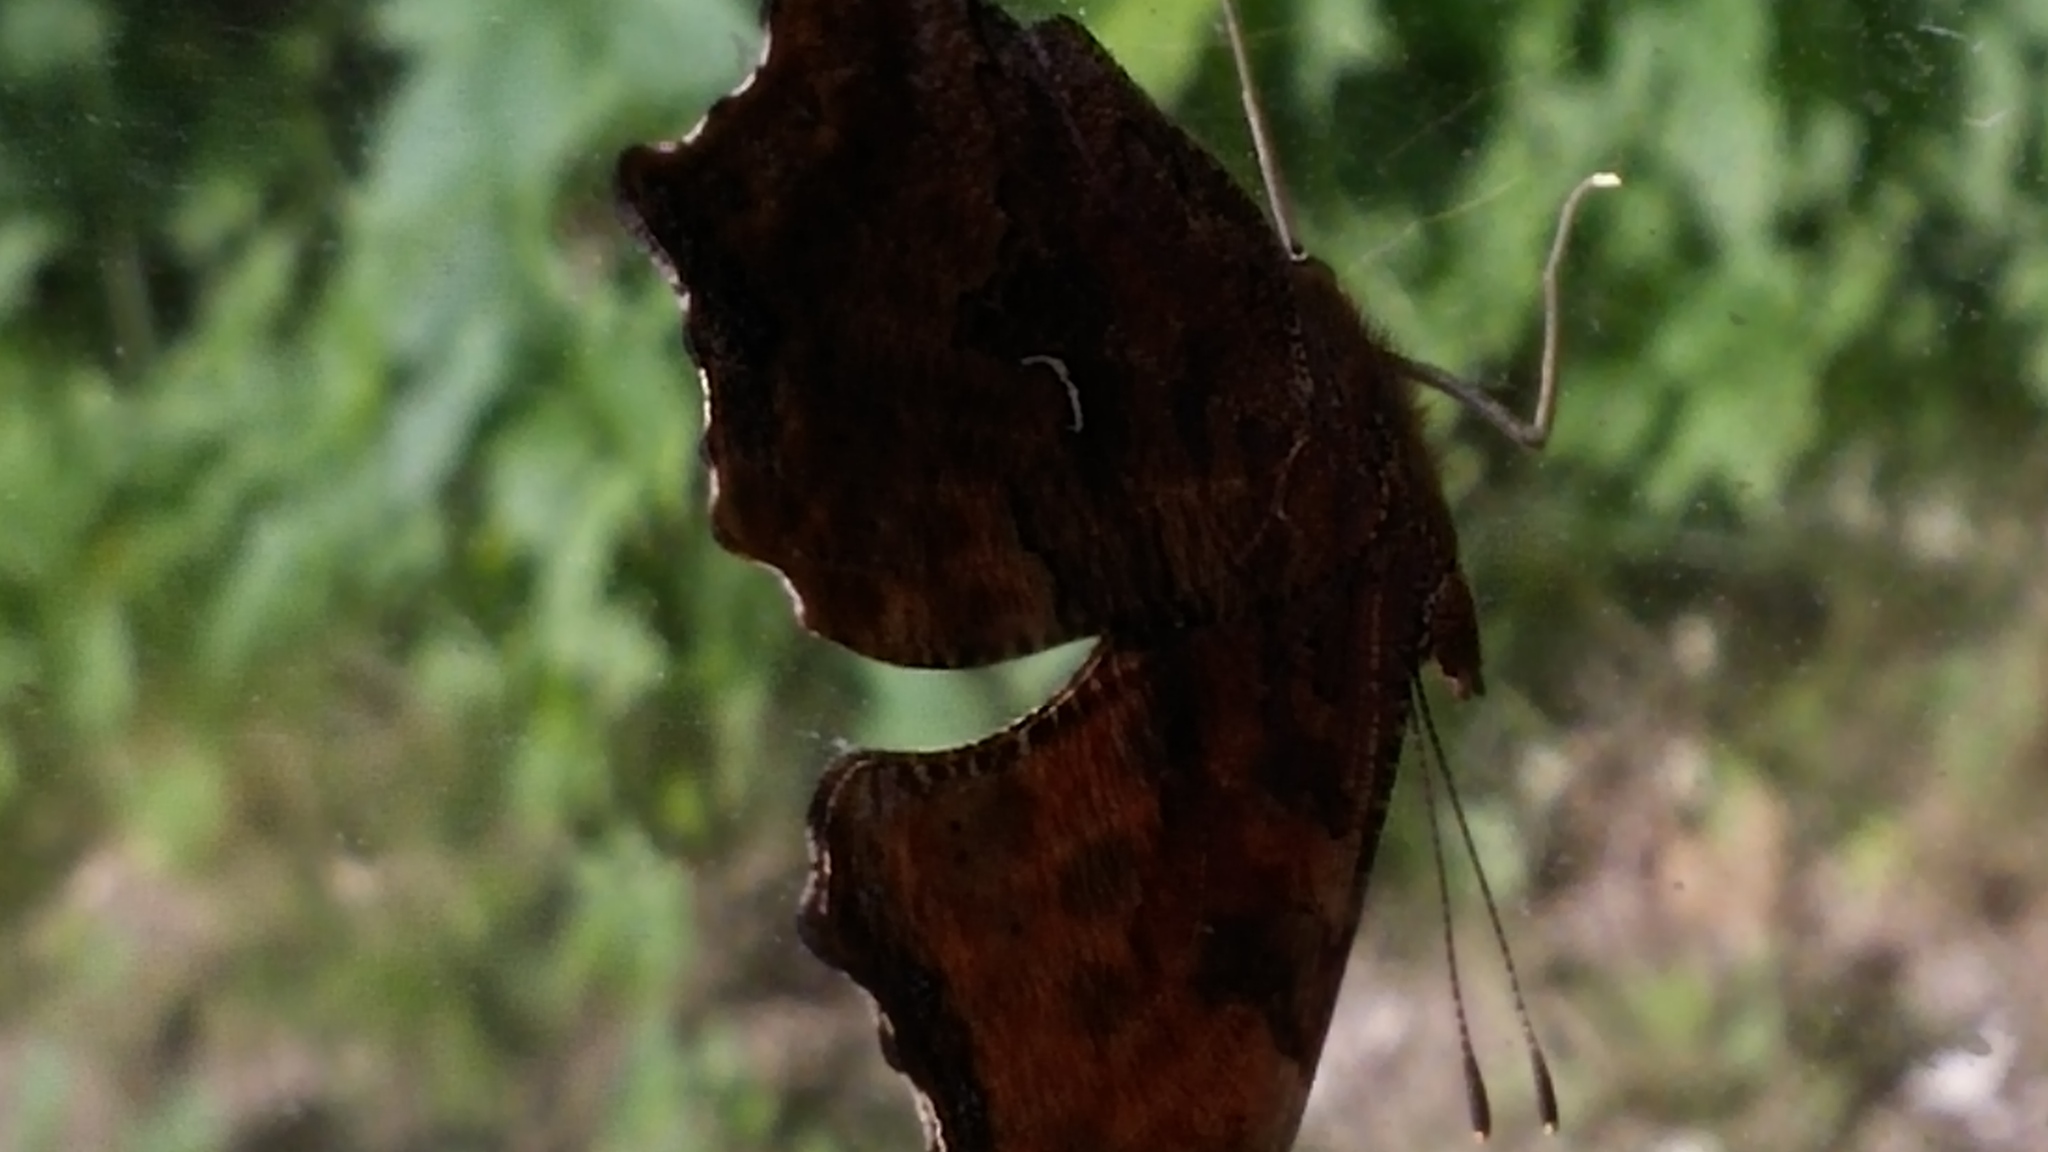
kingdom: Animalia
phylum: Arthropoda
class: Insecta
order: Lepidoptera
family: Nymphalidae
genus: Polygonia
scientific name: Polygonia comma
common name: Eastern comma
